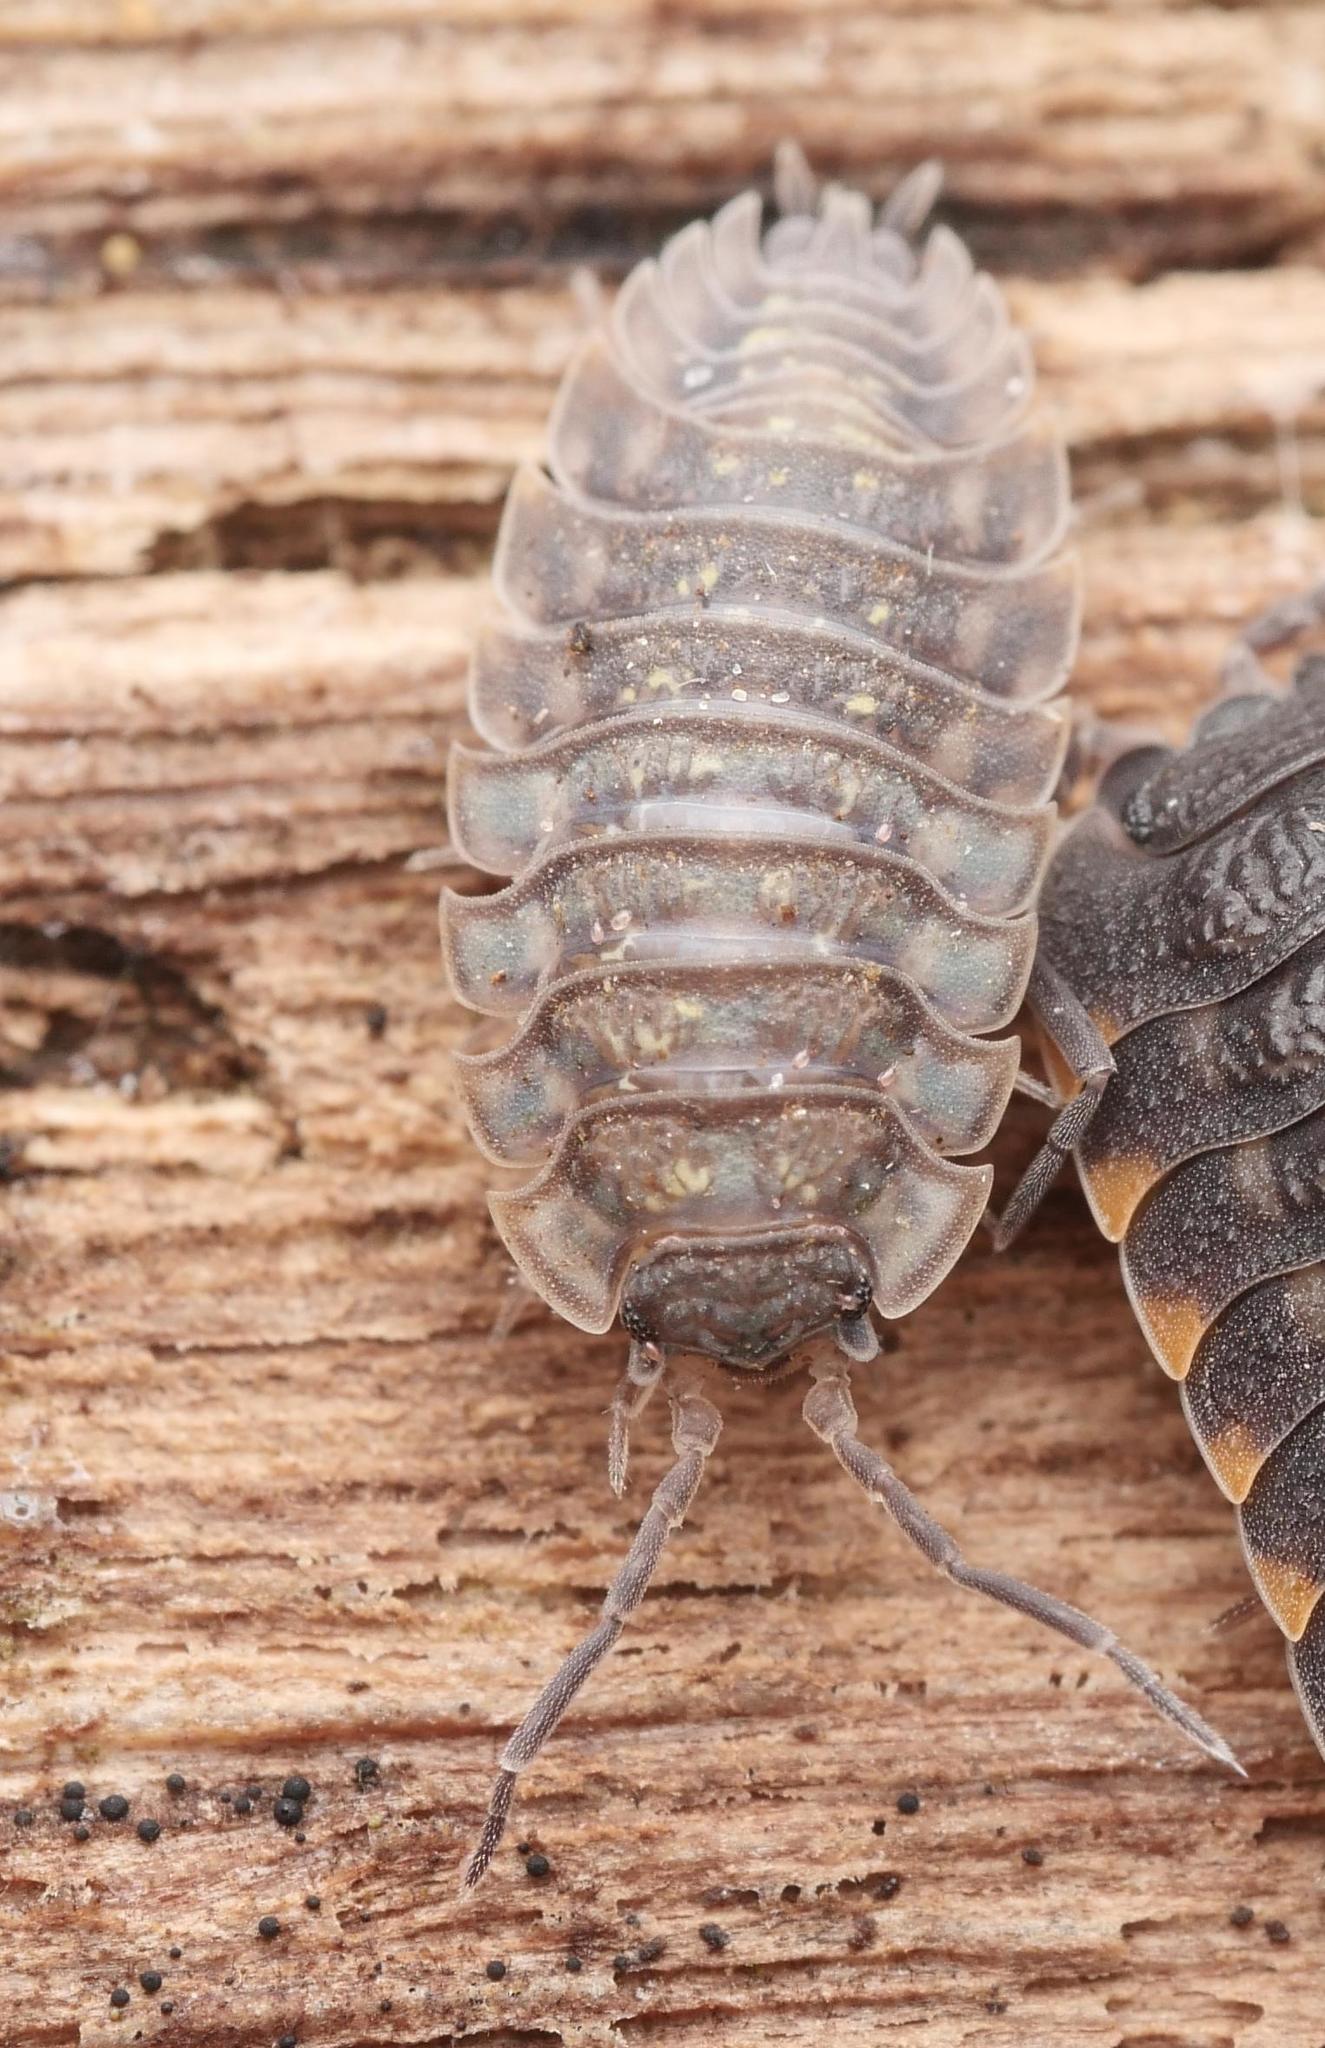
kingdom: Animalia
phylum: Arthropoda
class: Malacostraca
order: Isopoda
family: Oniscidae
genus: Oniscus
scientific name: Oniscus asellus
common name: Common shiny woodlouse
